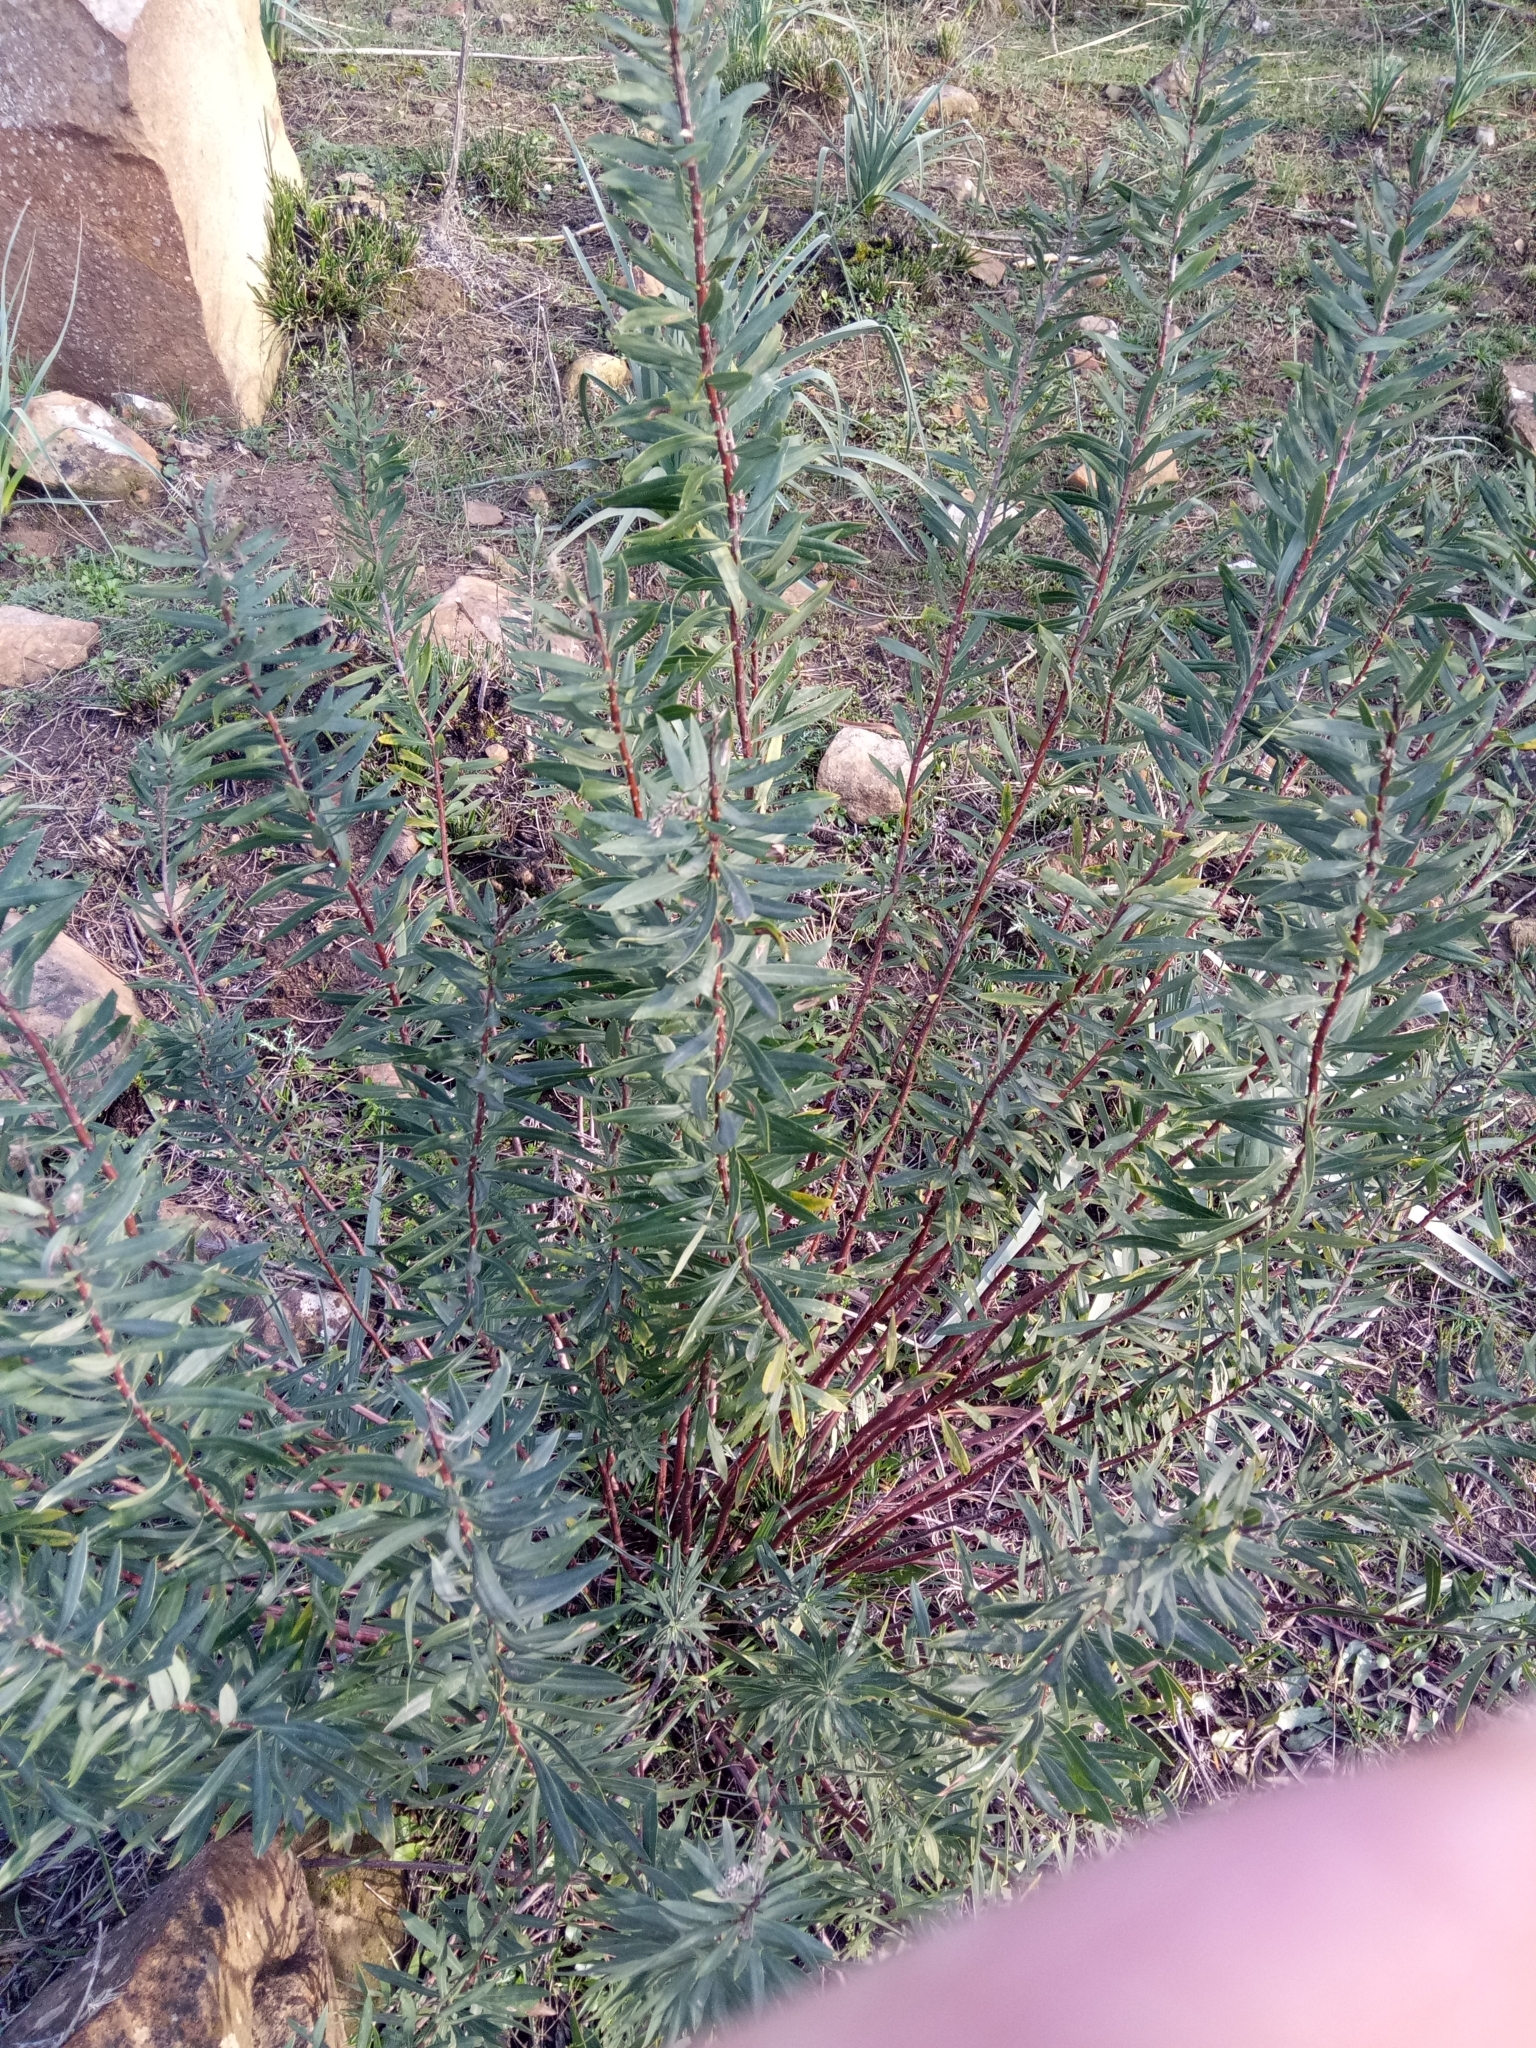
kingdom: Plantae
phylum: Tracheophyta
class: Magnoliopsida
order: Malvales
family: Thymelaeaceae
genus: Daphne
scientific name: Daphne gnidium
